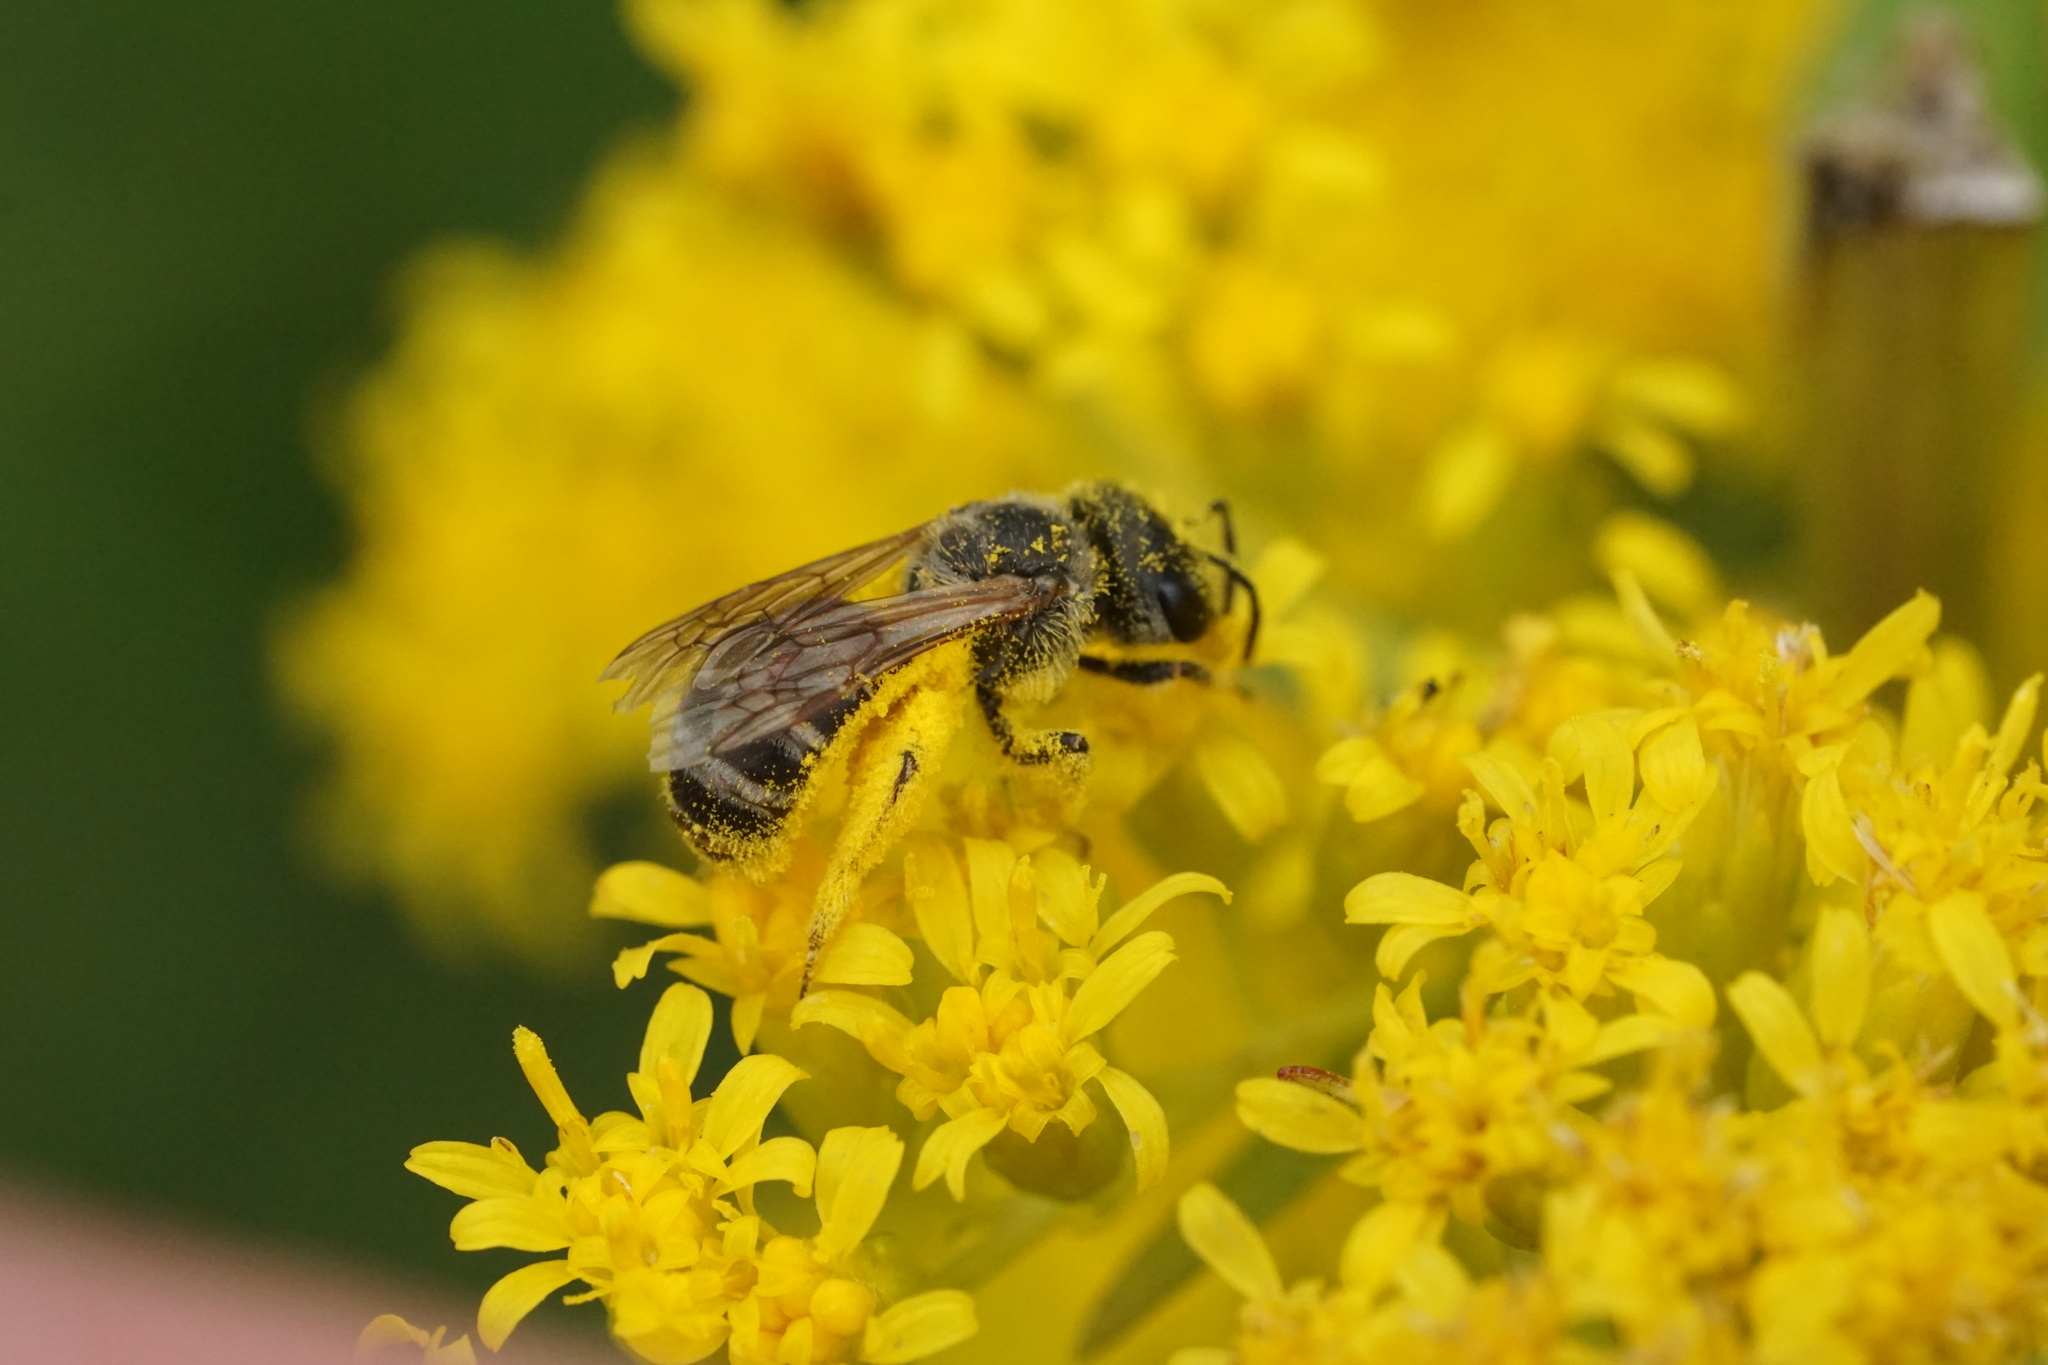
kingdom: Animalia
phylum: Arthropoda
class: Insecta
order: Hymenoptera
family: Halictidae
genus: Halictus
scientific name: Halictus ligatus
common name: Ligated furrow bee
